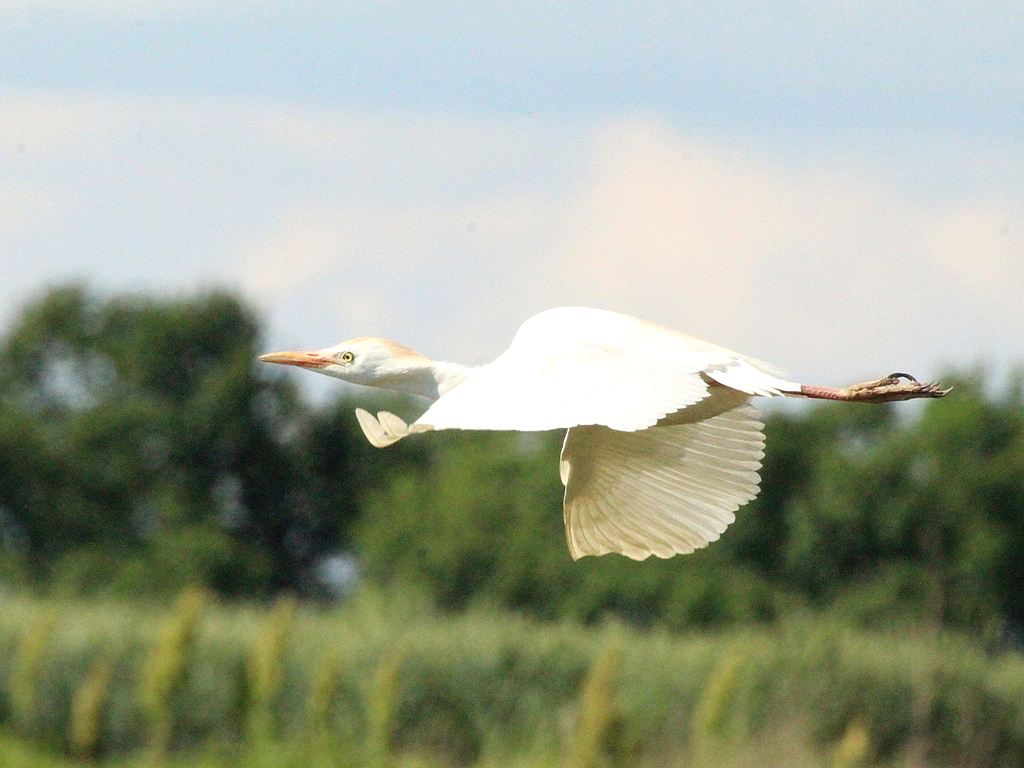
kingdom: Animalia
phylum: Chordata
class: Aves
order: Pelecaniformes
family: Ardeidae
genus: Bubulcus
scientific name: Bubulcus ibis
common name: Cattle egret
